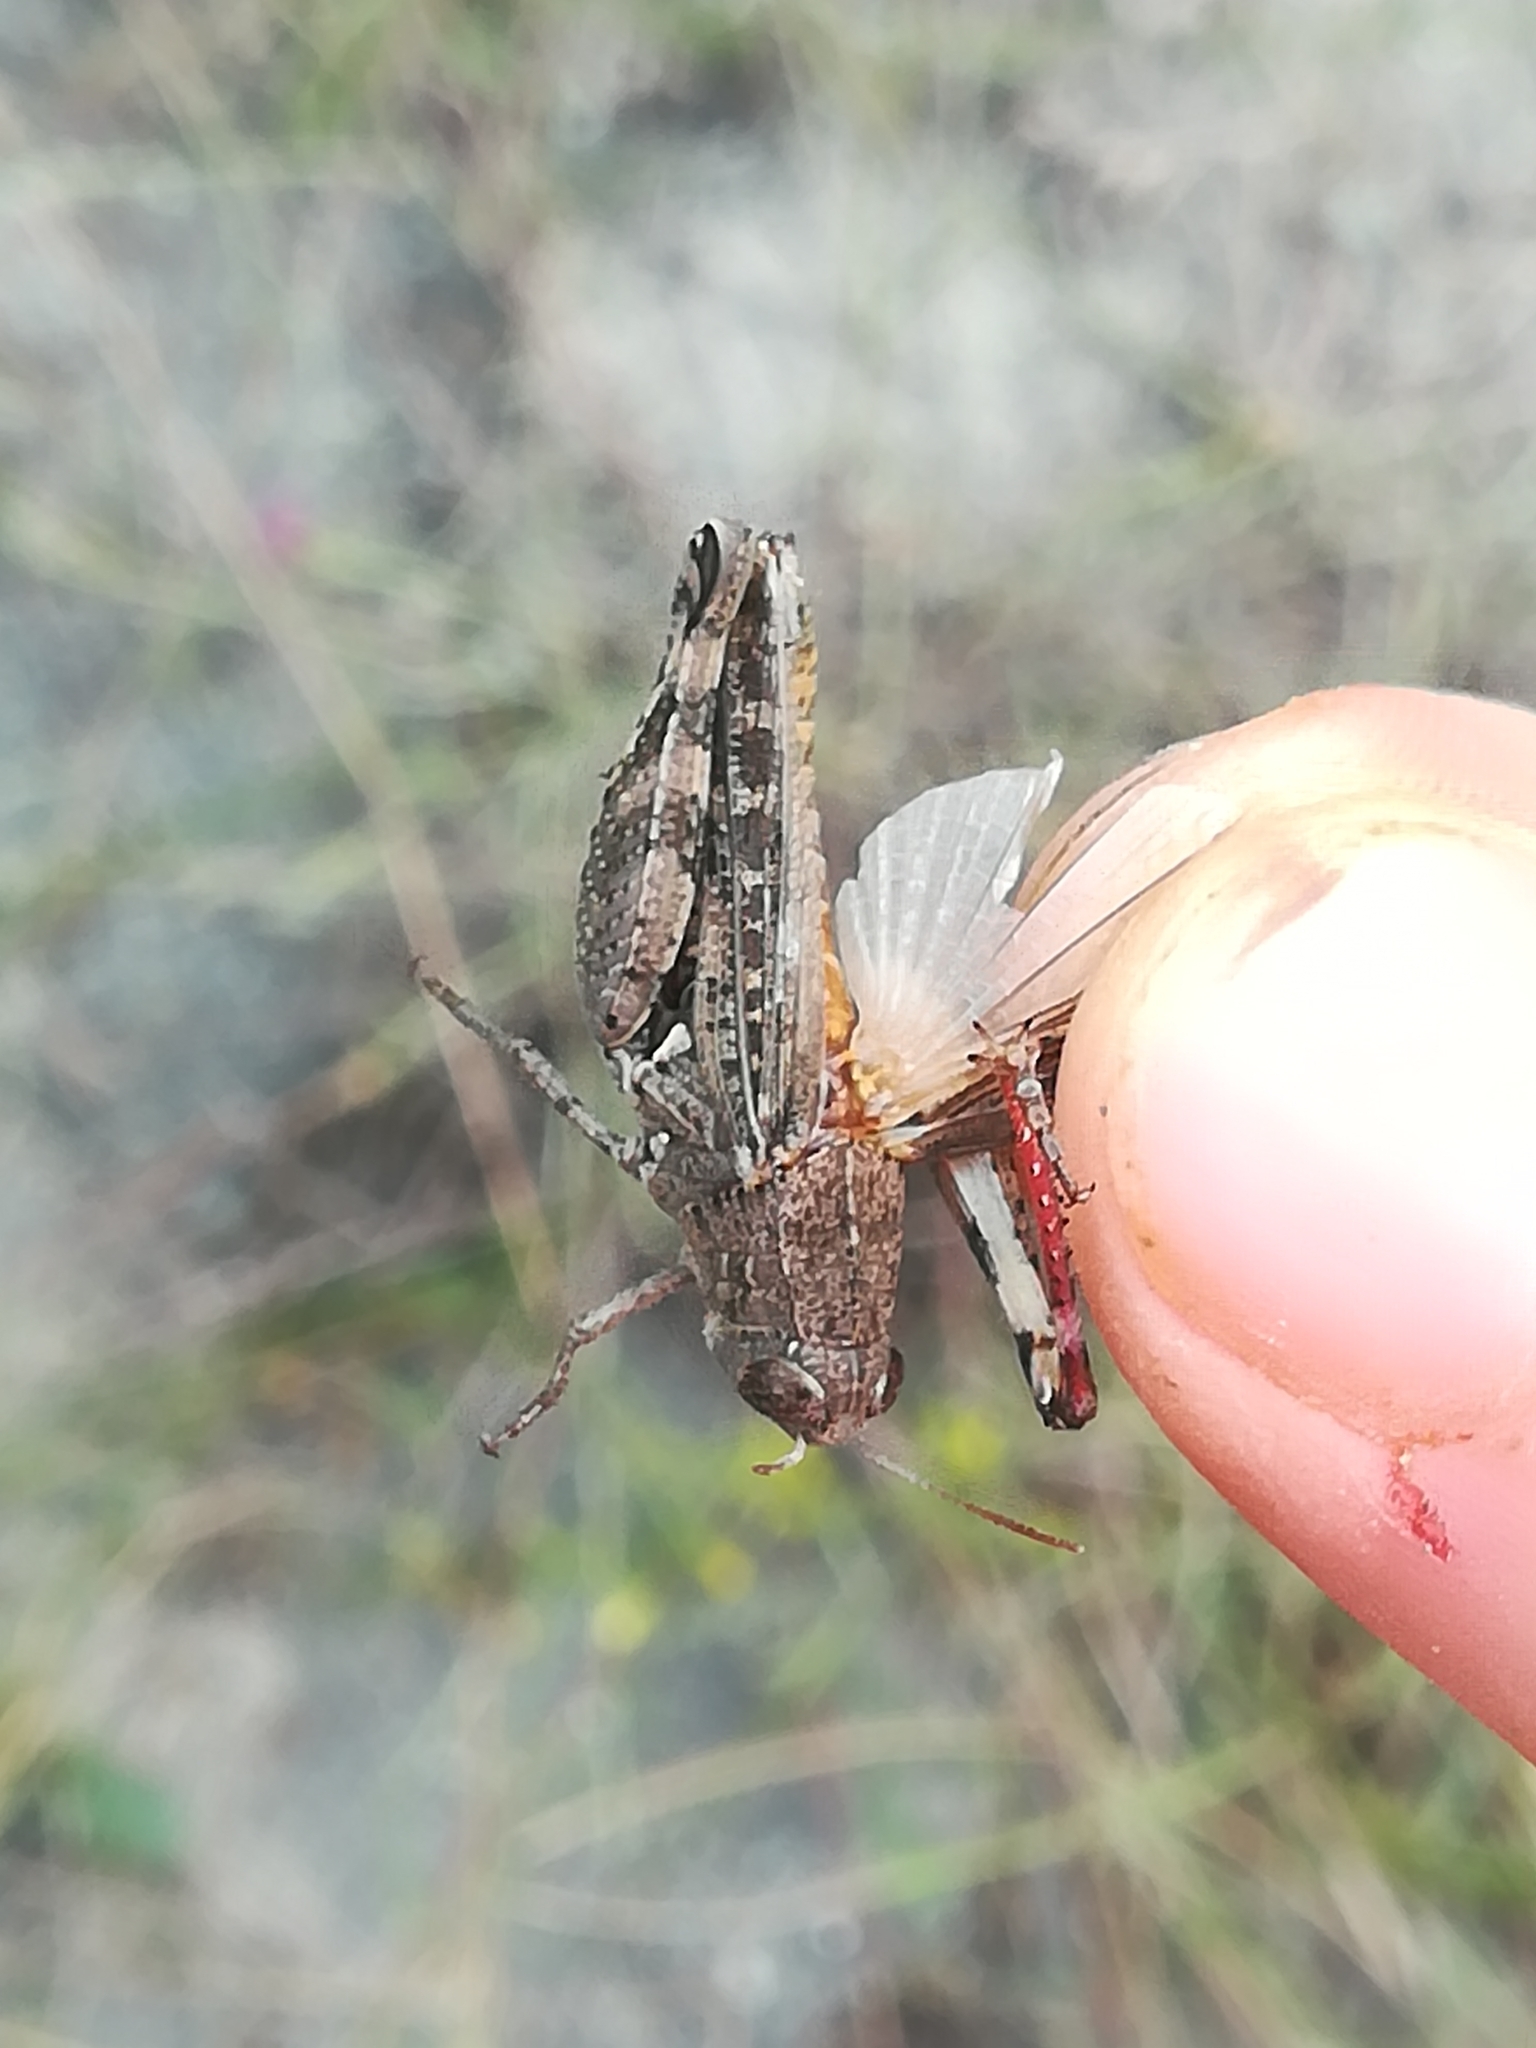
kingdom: Animalia
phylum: Arthropoda
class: Insecta
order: Orthoptera
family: Acrididae
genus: Calliptamus
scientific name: Calliptamus siciliae
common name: Pygmy pincer grasshopper
